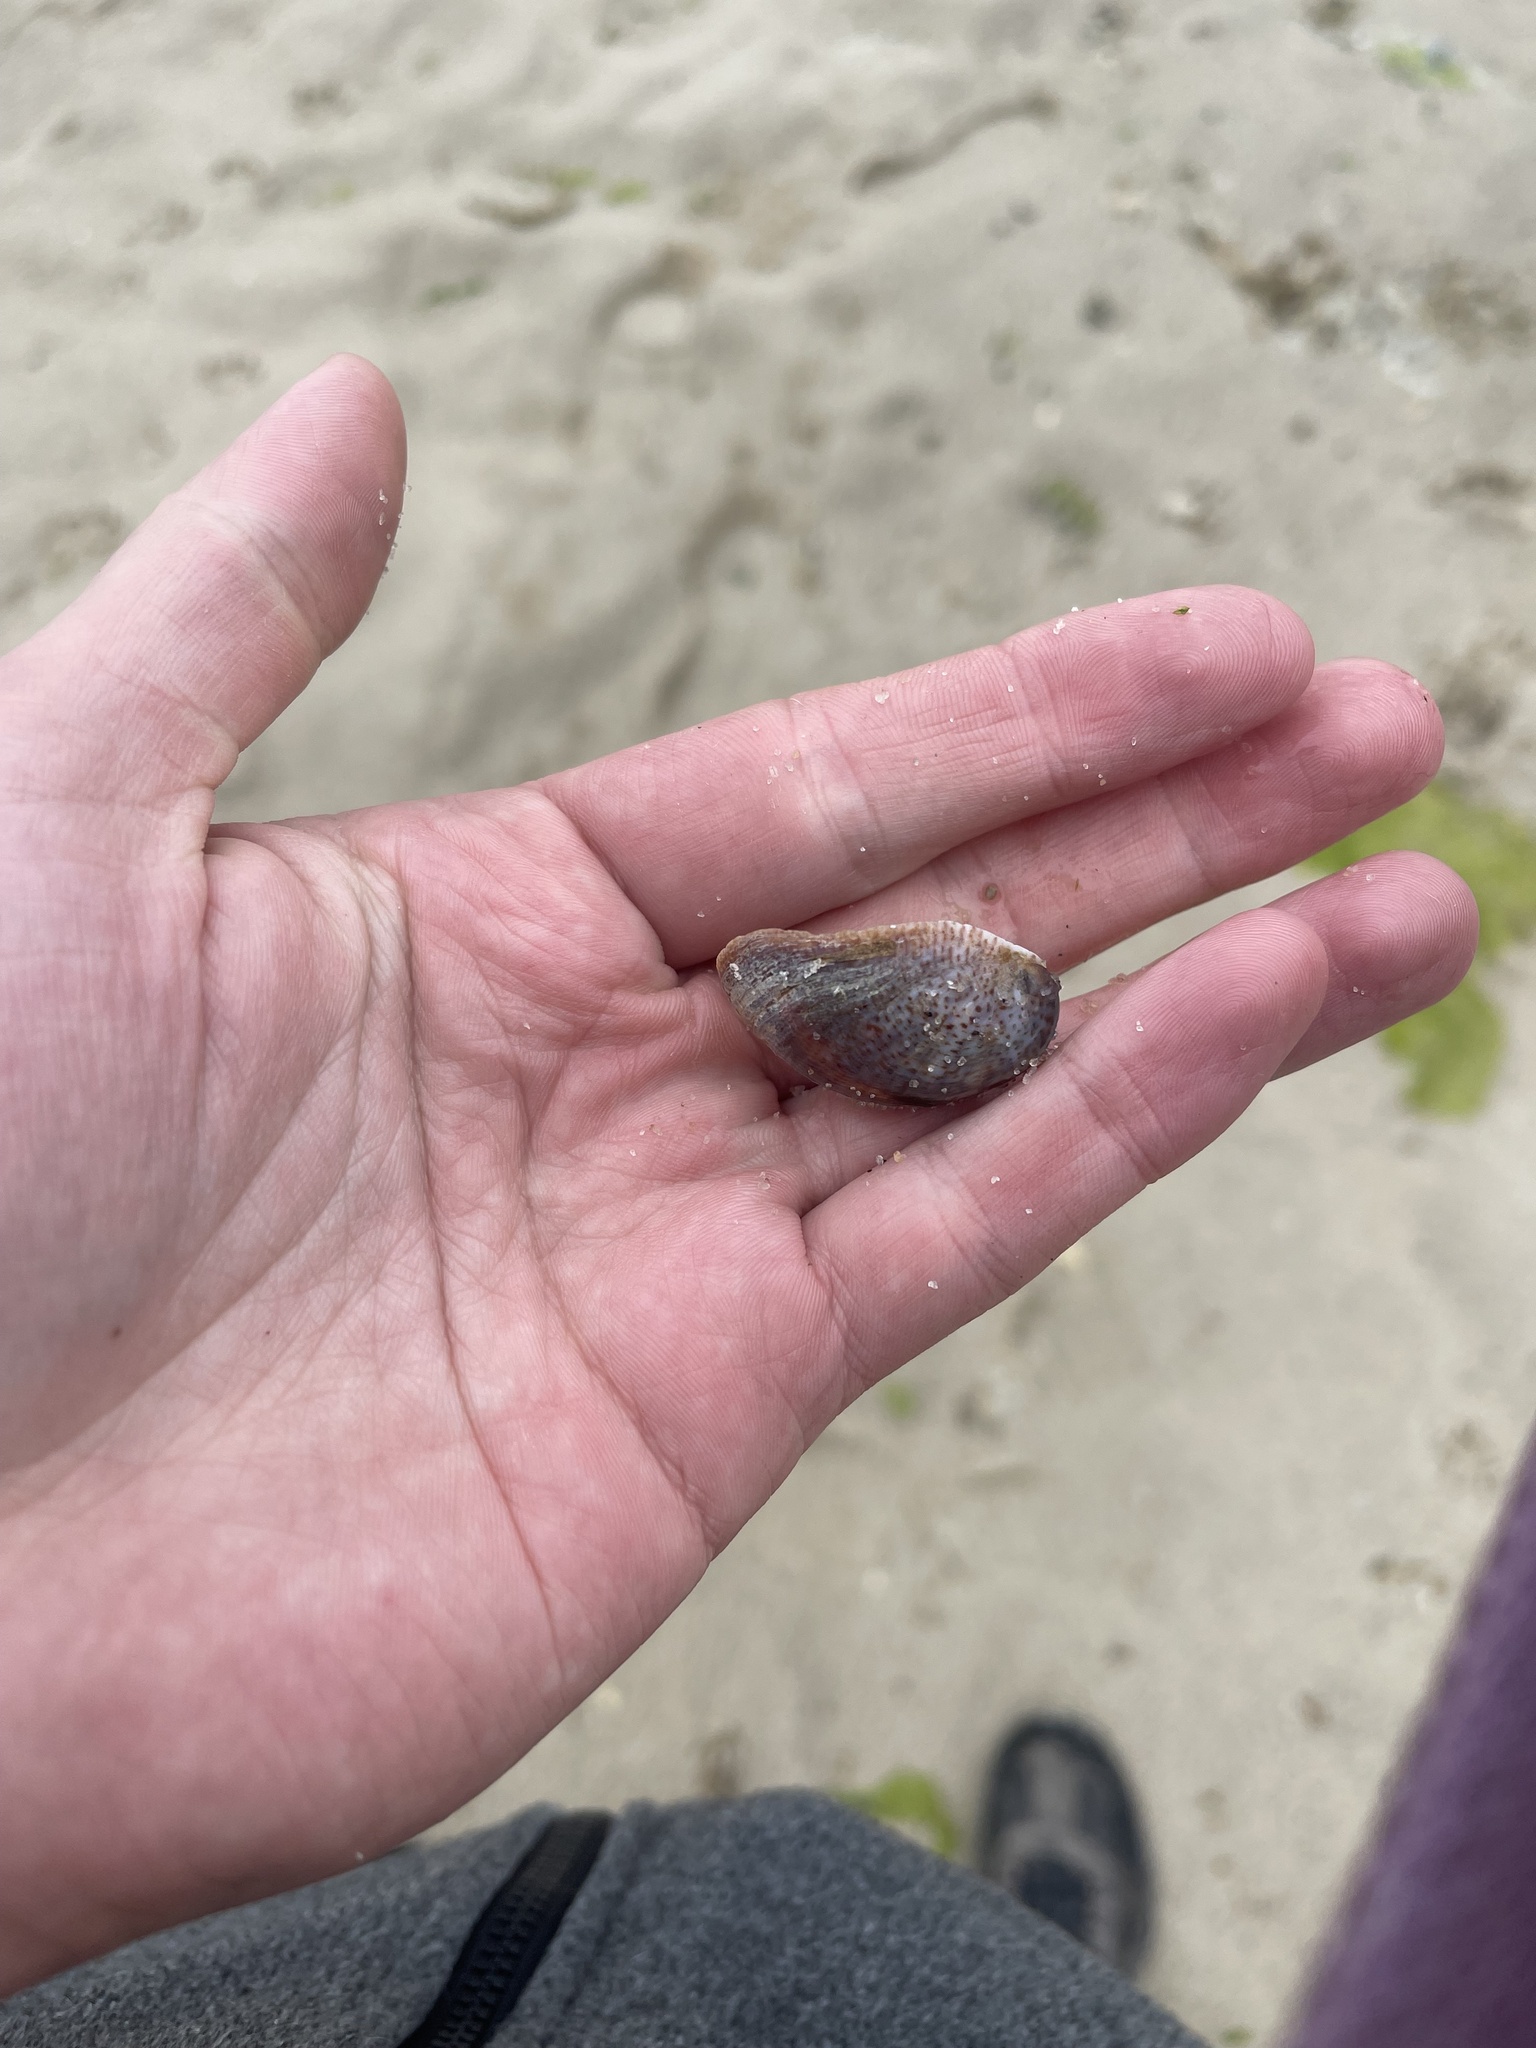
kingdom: Animalia
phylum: Mollusca
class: Gastropoda
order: Littorinimorpha
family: Calyptraeidae
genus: Crepidula
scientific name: Crepidula fornicata
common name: Slipper limpet
